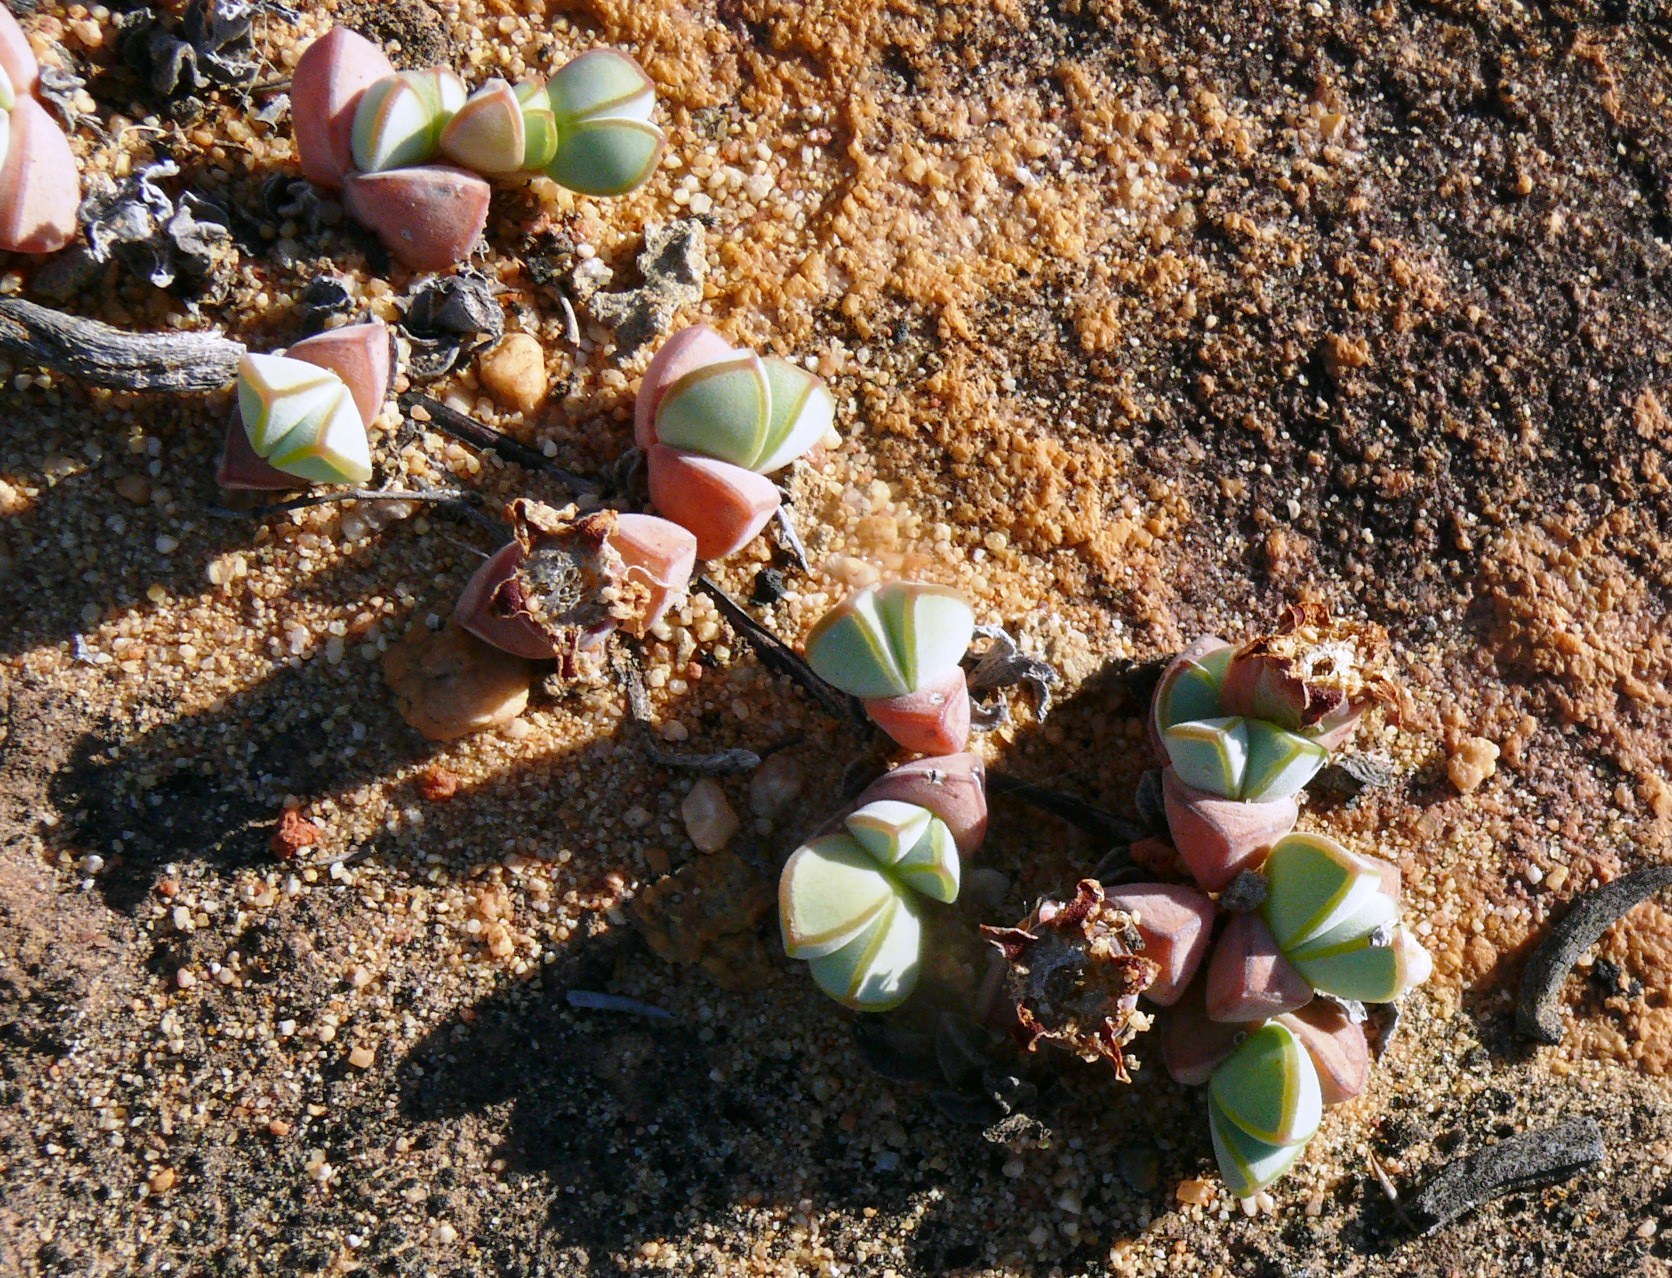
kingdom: Plantae
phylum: Tracheophyta
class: Magnoliopsida
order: Caryophyllales
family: Aizoaceae
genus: Braunsia
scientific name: Braunsia maximiliani
